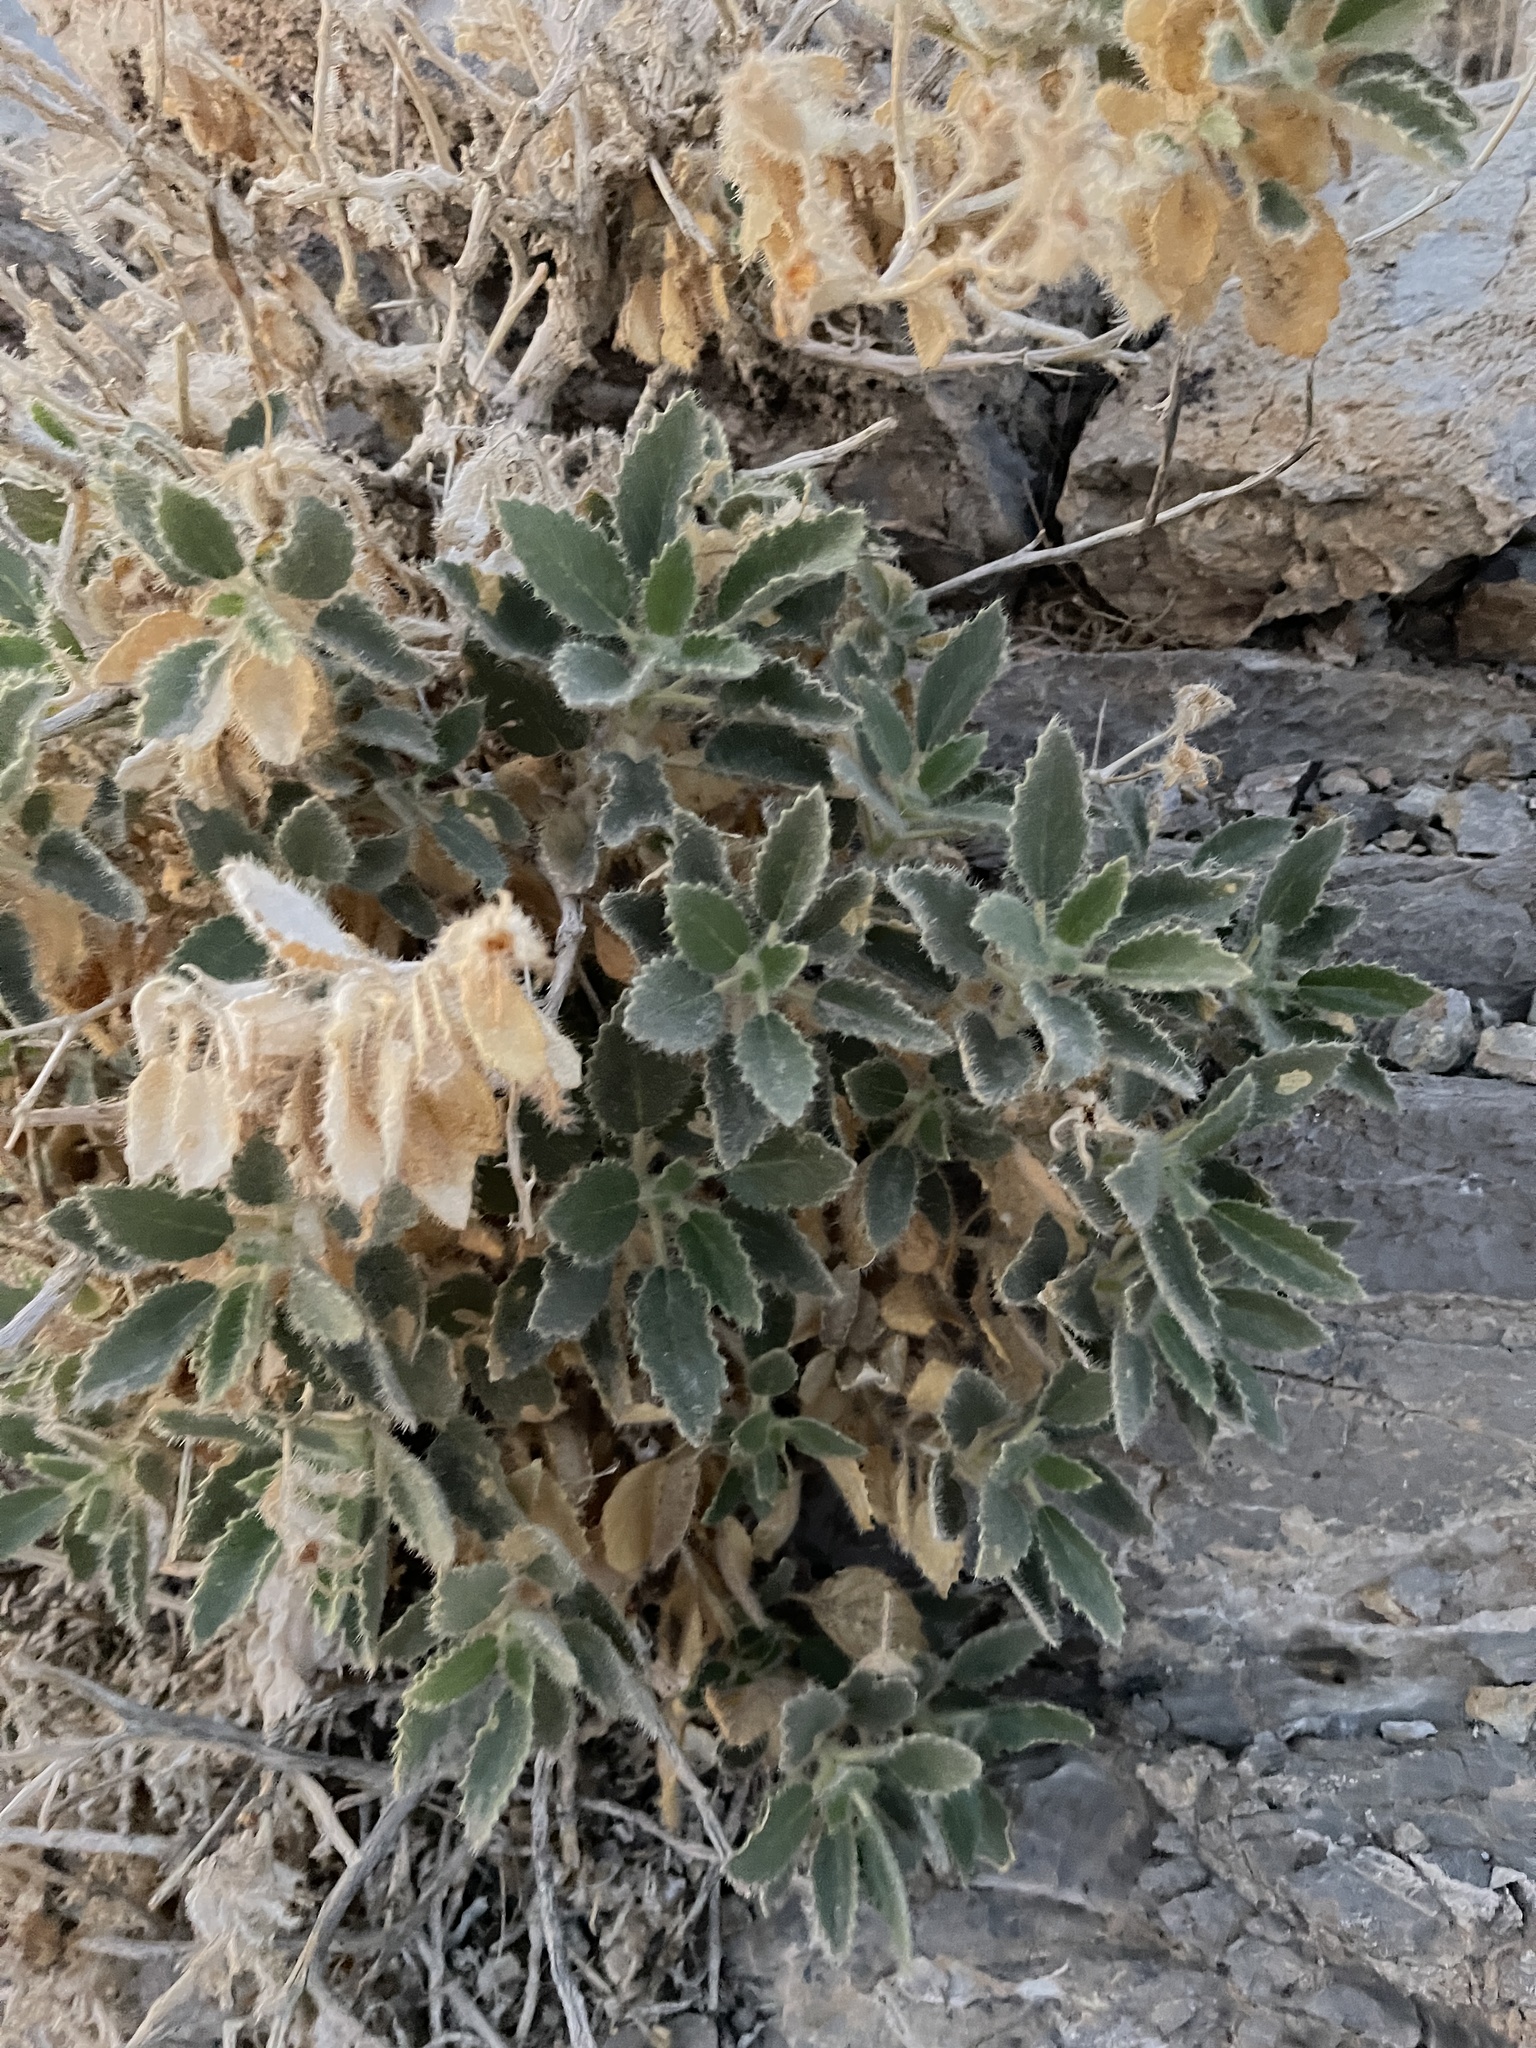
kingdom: Plantae
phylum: Tracheophyta
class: Magnoliopsida
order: Cornales
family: Loasaceae
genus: Eucnide
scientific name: Eucnide urens
